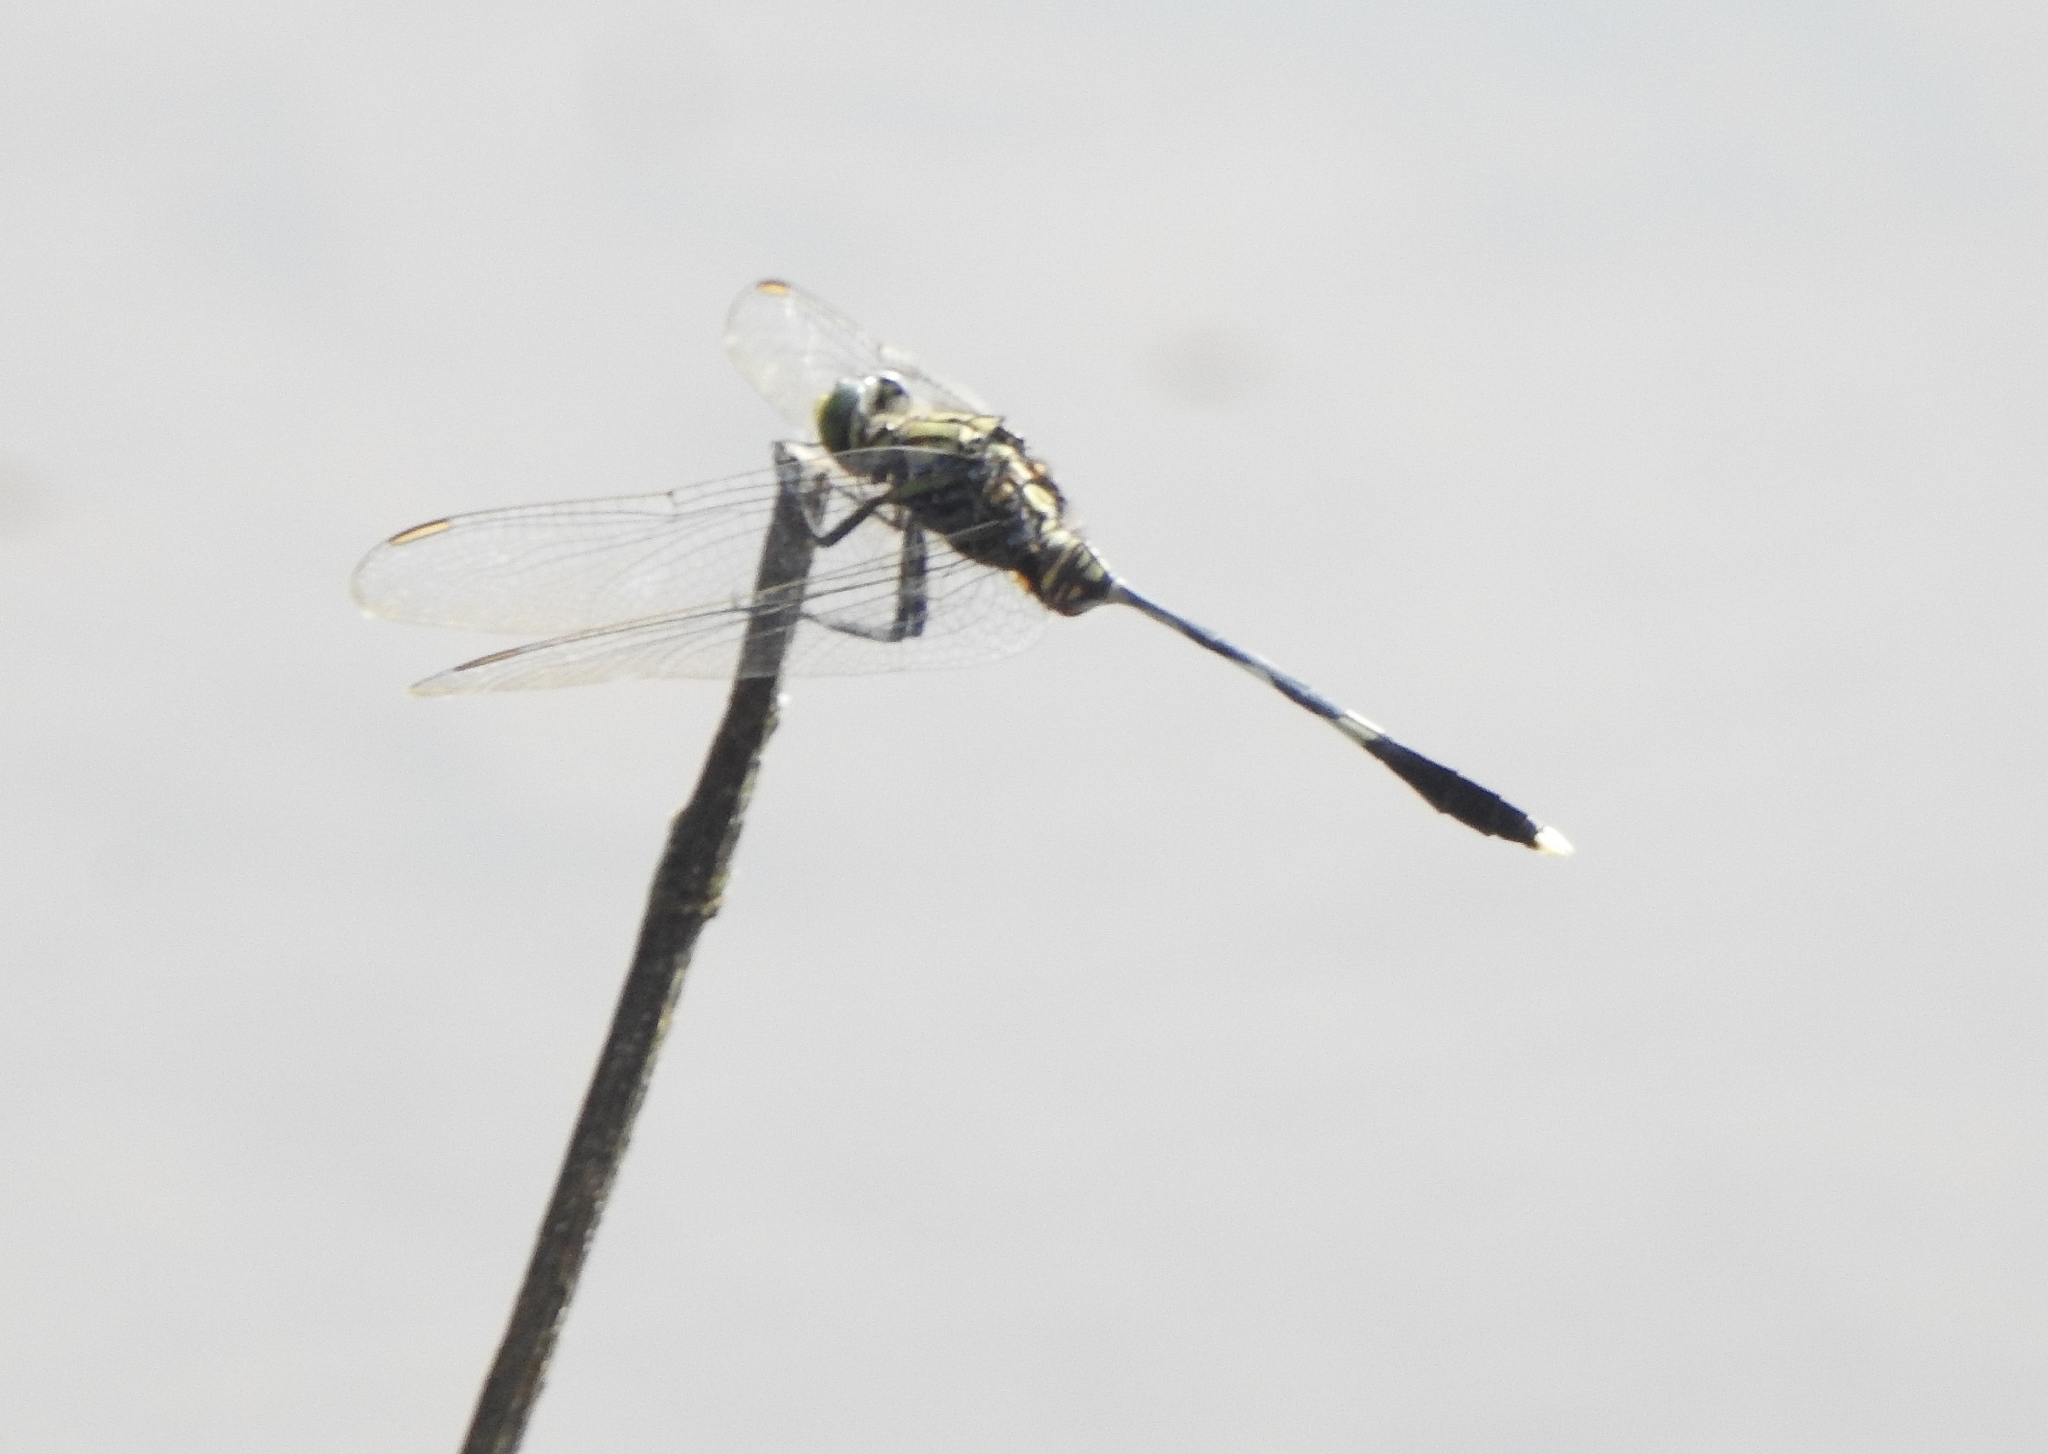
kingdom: Animalia
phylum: Arthropoda
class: Insecta
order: Odonata
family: Libellulidae
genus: Orthetrum
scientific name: Orthetrum sabina
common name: Slender skimmer
